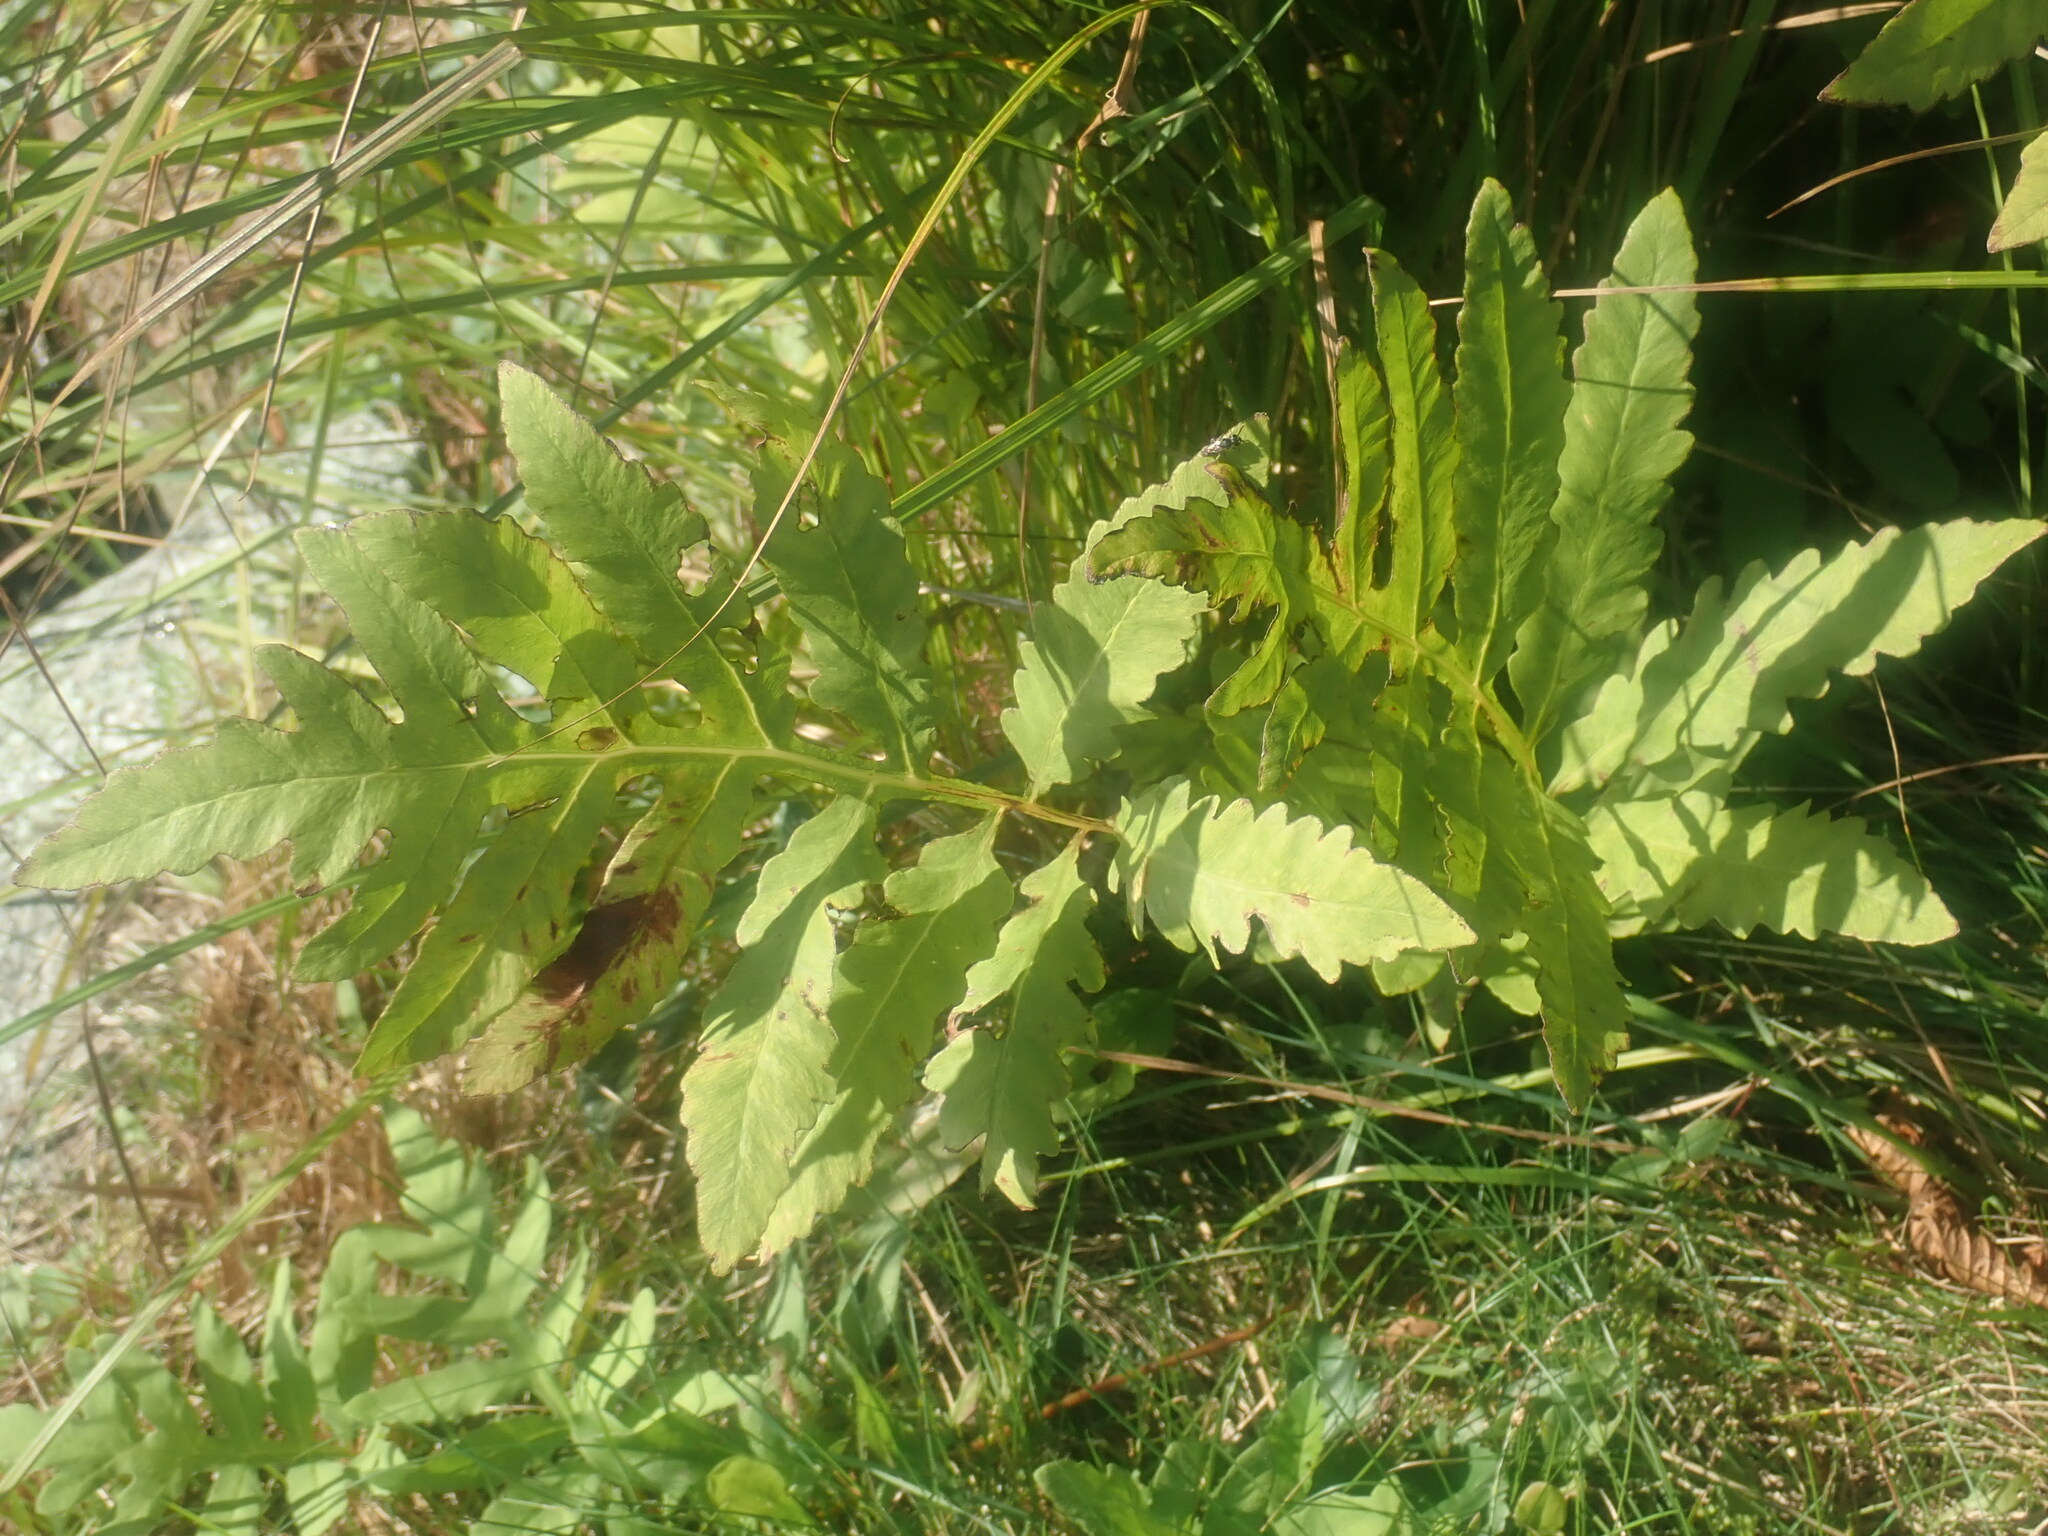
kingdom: Plantae
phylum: Tracheophyta
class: Polypodiopsida
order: Polypodiales
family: Onocleaceae
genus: Onoclea
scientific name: Onoclea sensibilis
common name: Sensitive fern
